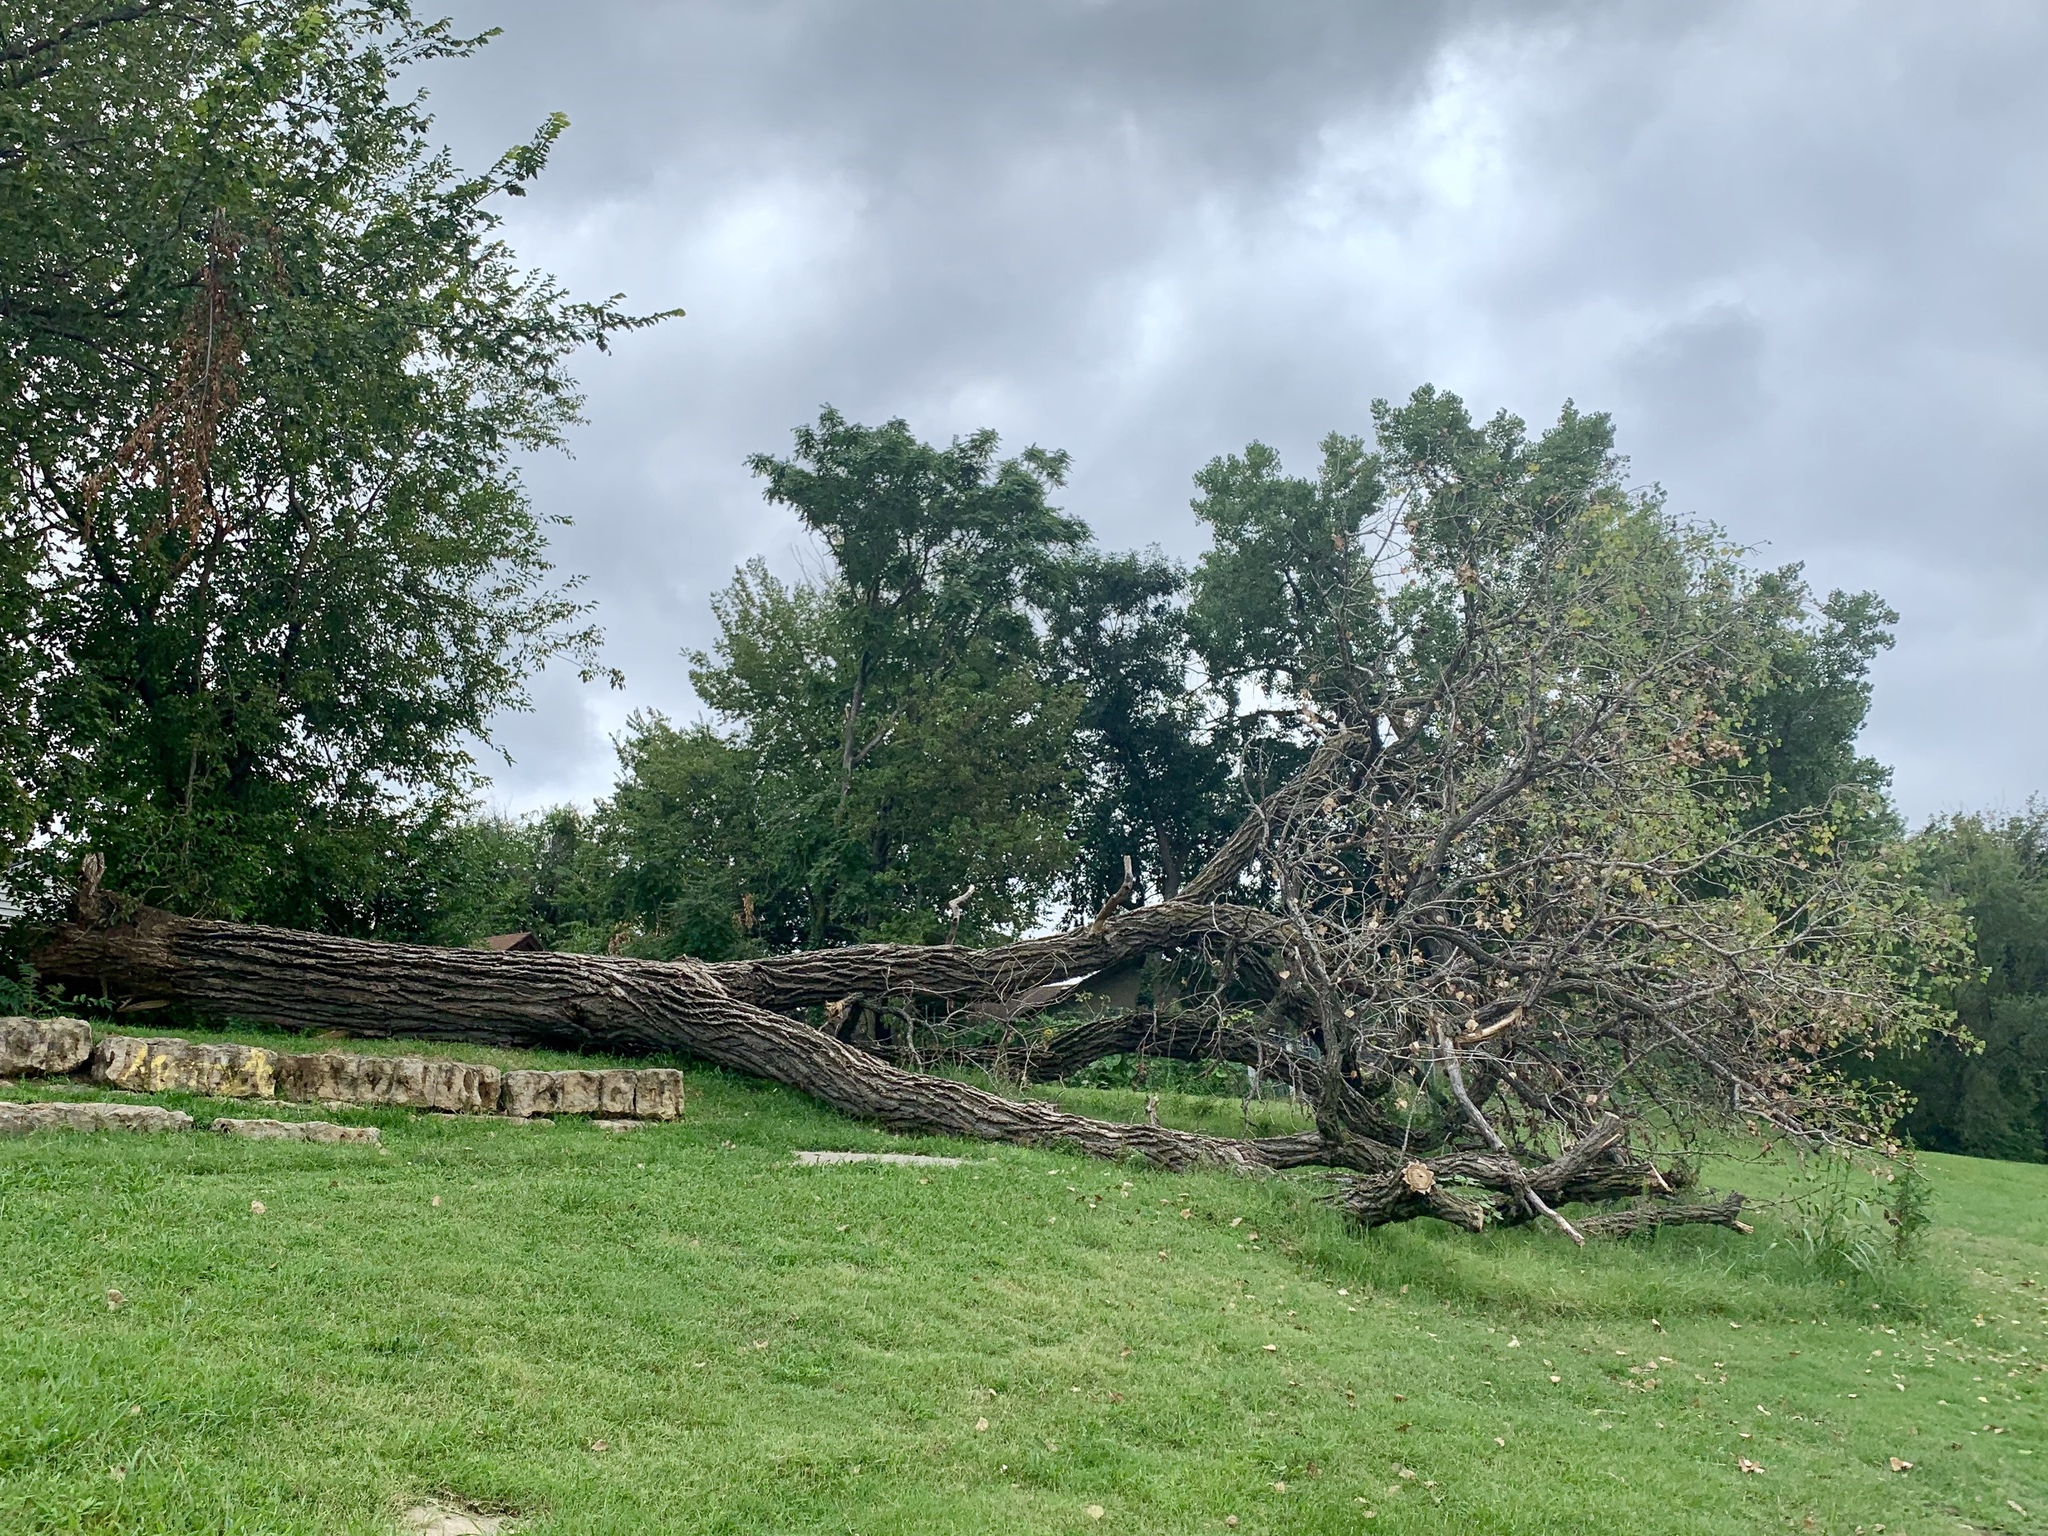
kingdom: Plantae
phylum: Tracheophyta
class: Magnoliopsida
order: Malpighiales
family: Salicaceae
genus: Populus
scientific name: Populus deltoides
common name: Eastern cottonwood
